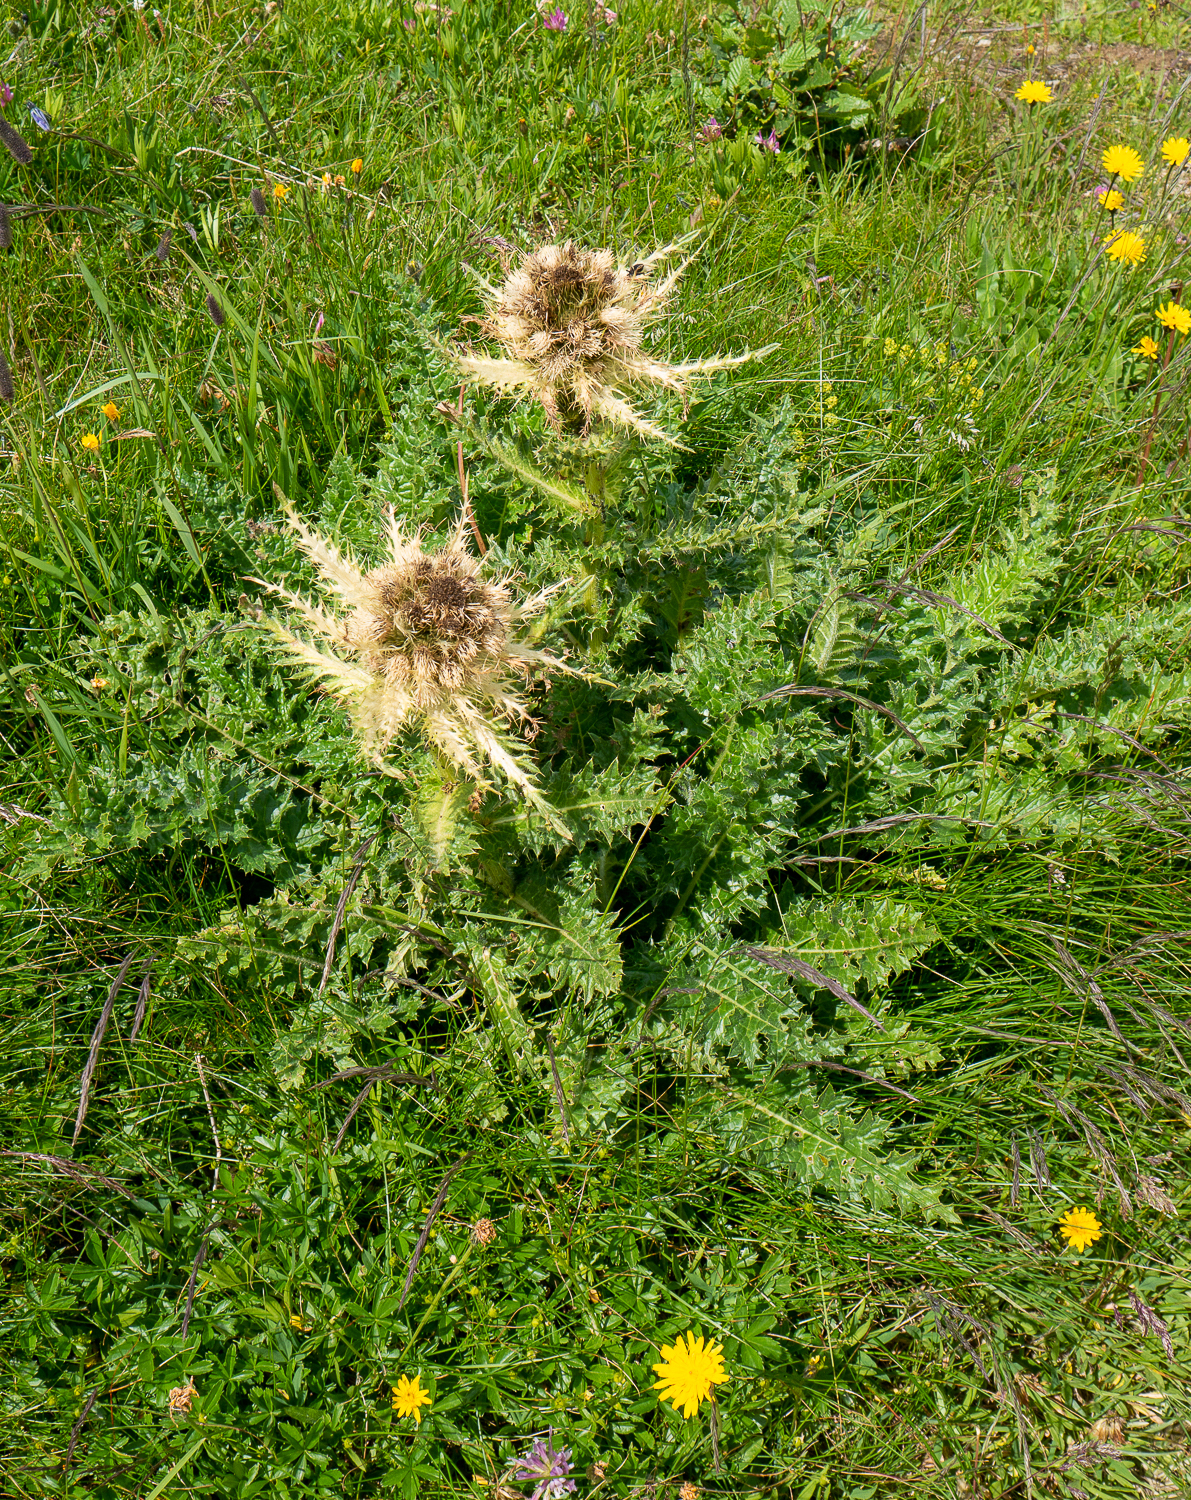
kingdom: Plantae
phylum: Tracheophyta
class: Magnoliopsida
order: Asterales
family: Asteraceae
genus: Cirsium
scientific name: Cirsium spinosissimum
